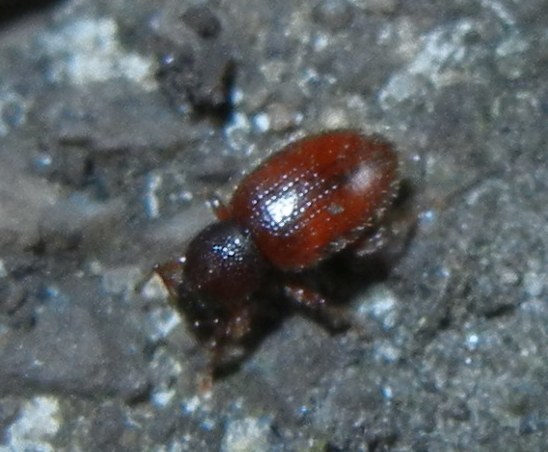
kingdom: Animalia
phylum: Arthropoda
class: Insecta
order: Coleoptera
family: Curculionidae
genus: Exomias
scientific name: Exomias pellucidus
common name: Hairy spider weevil
